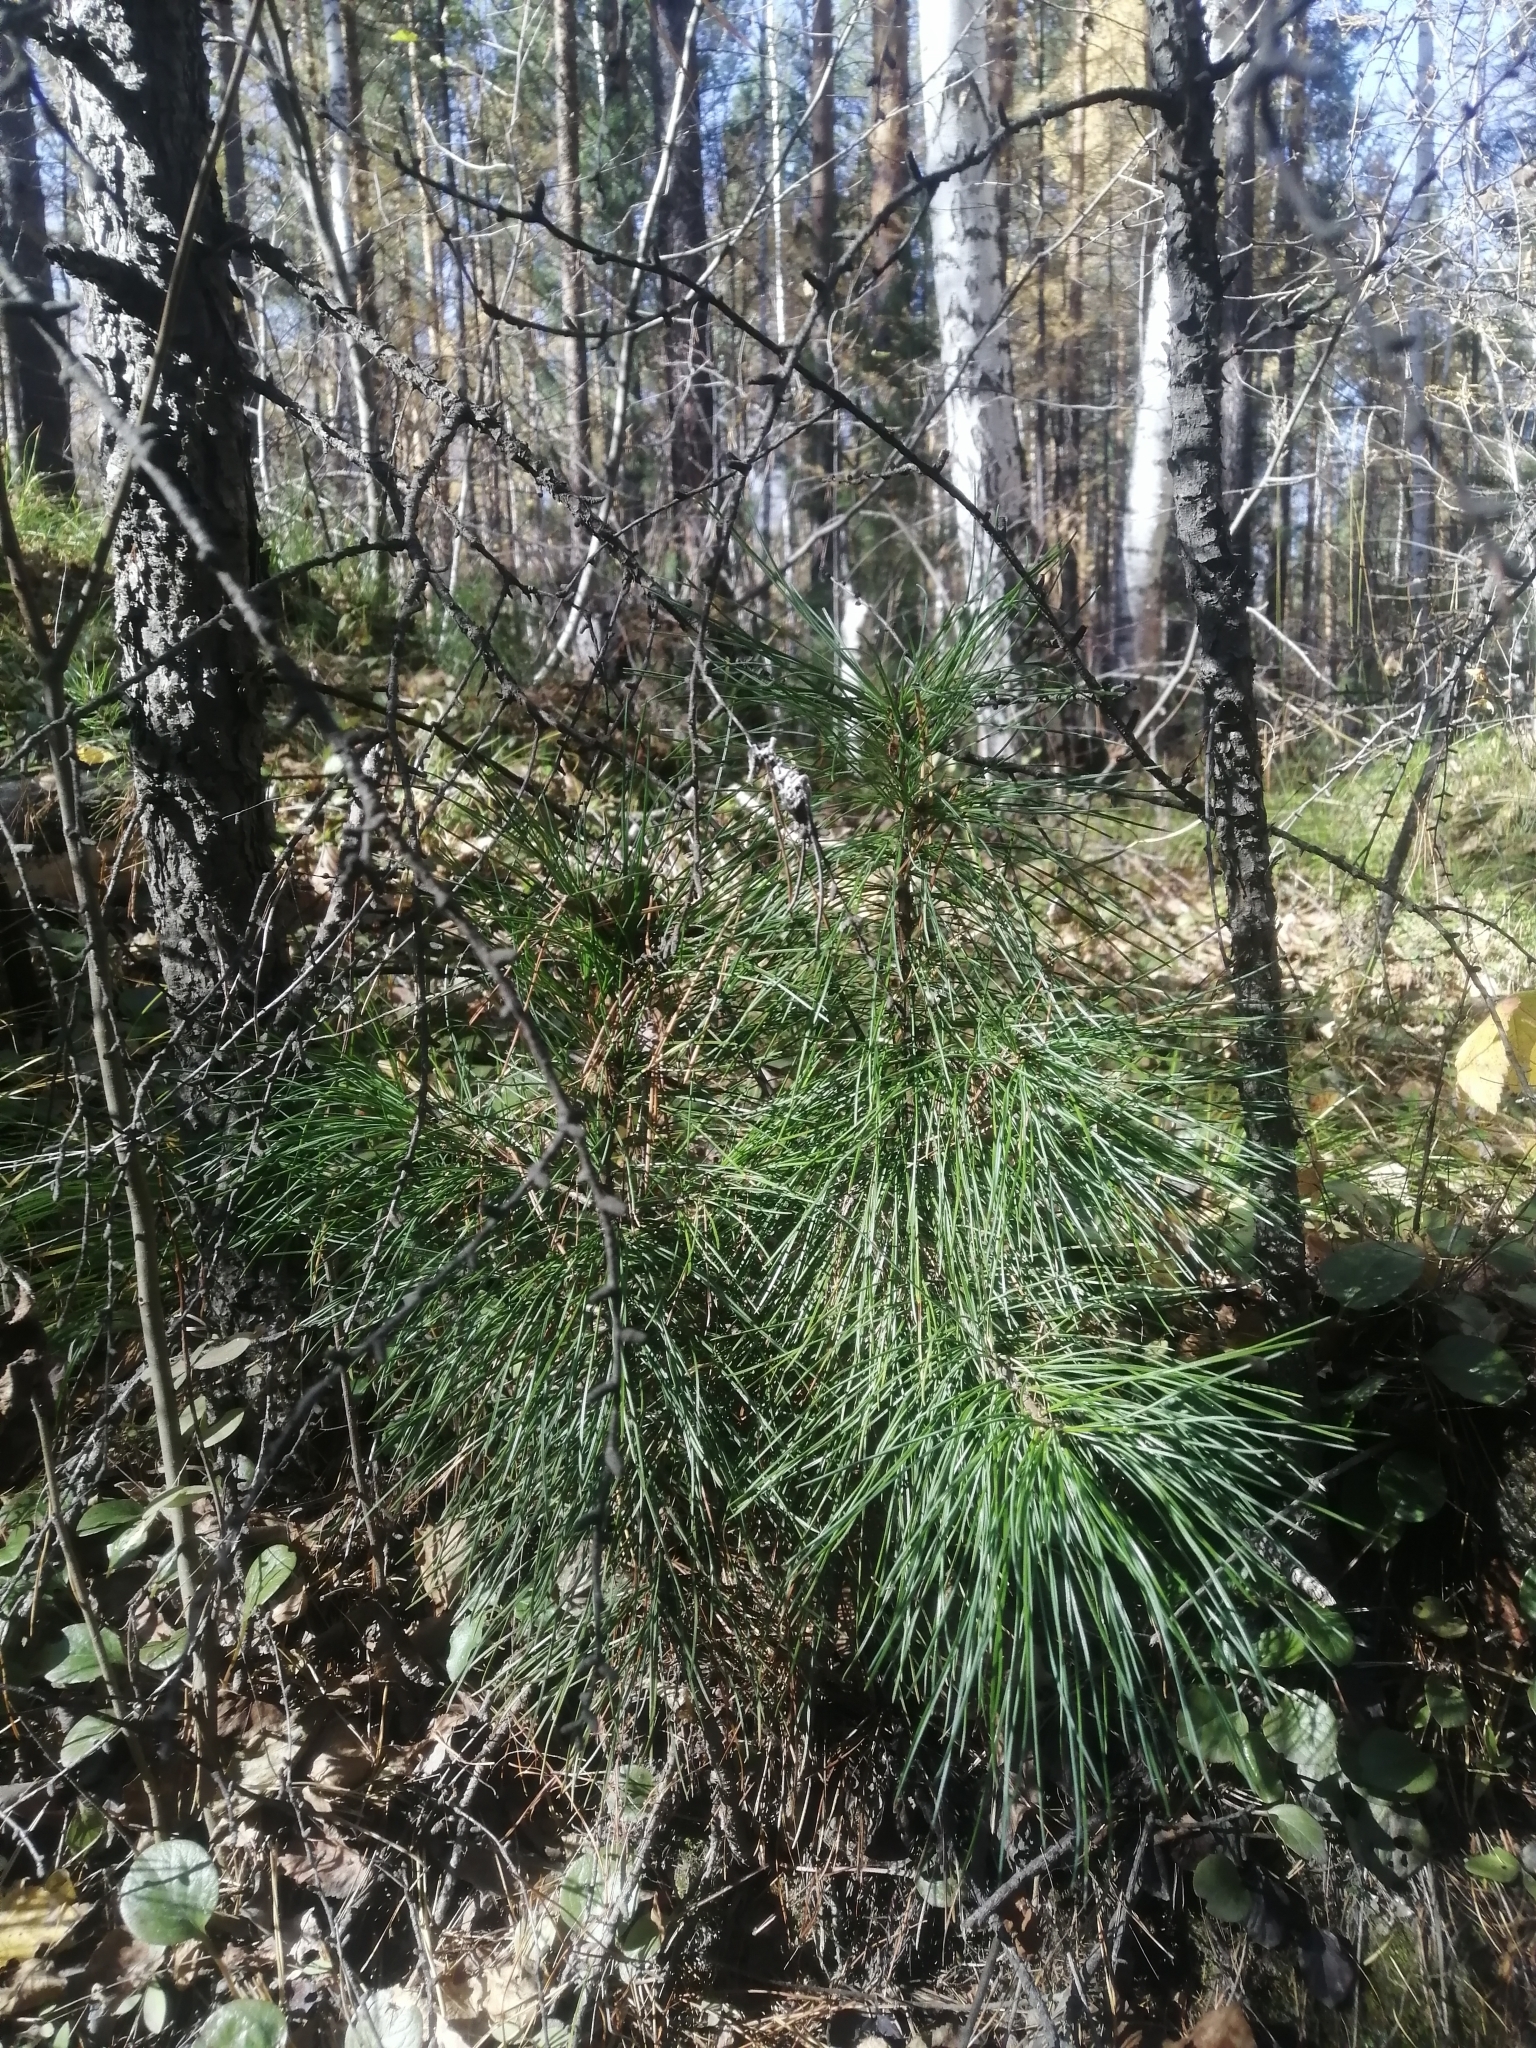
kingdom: Plantae
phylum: Tracheophyta
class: Pinopsida
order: Pinales
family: Pinaceae
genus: Pinus
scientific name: Pinus sibirica
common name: Siberian pine
